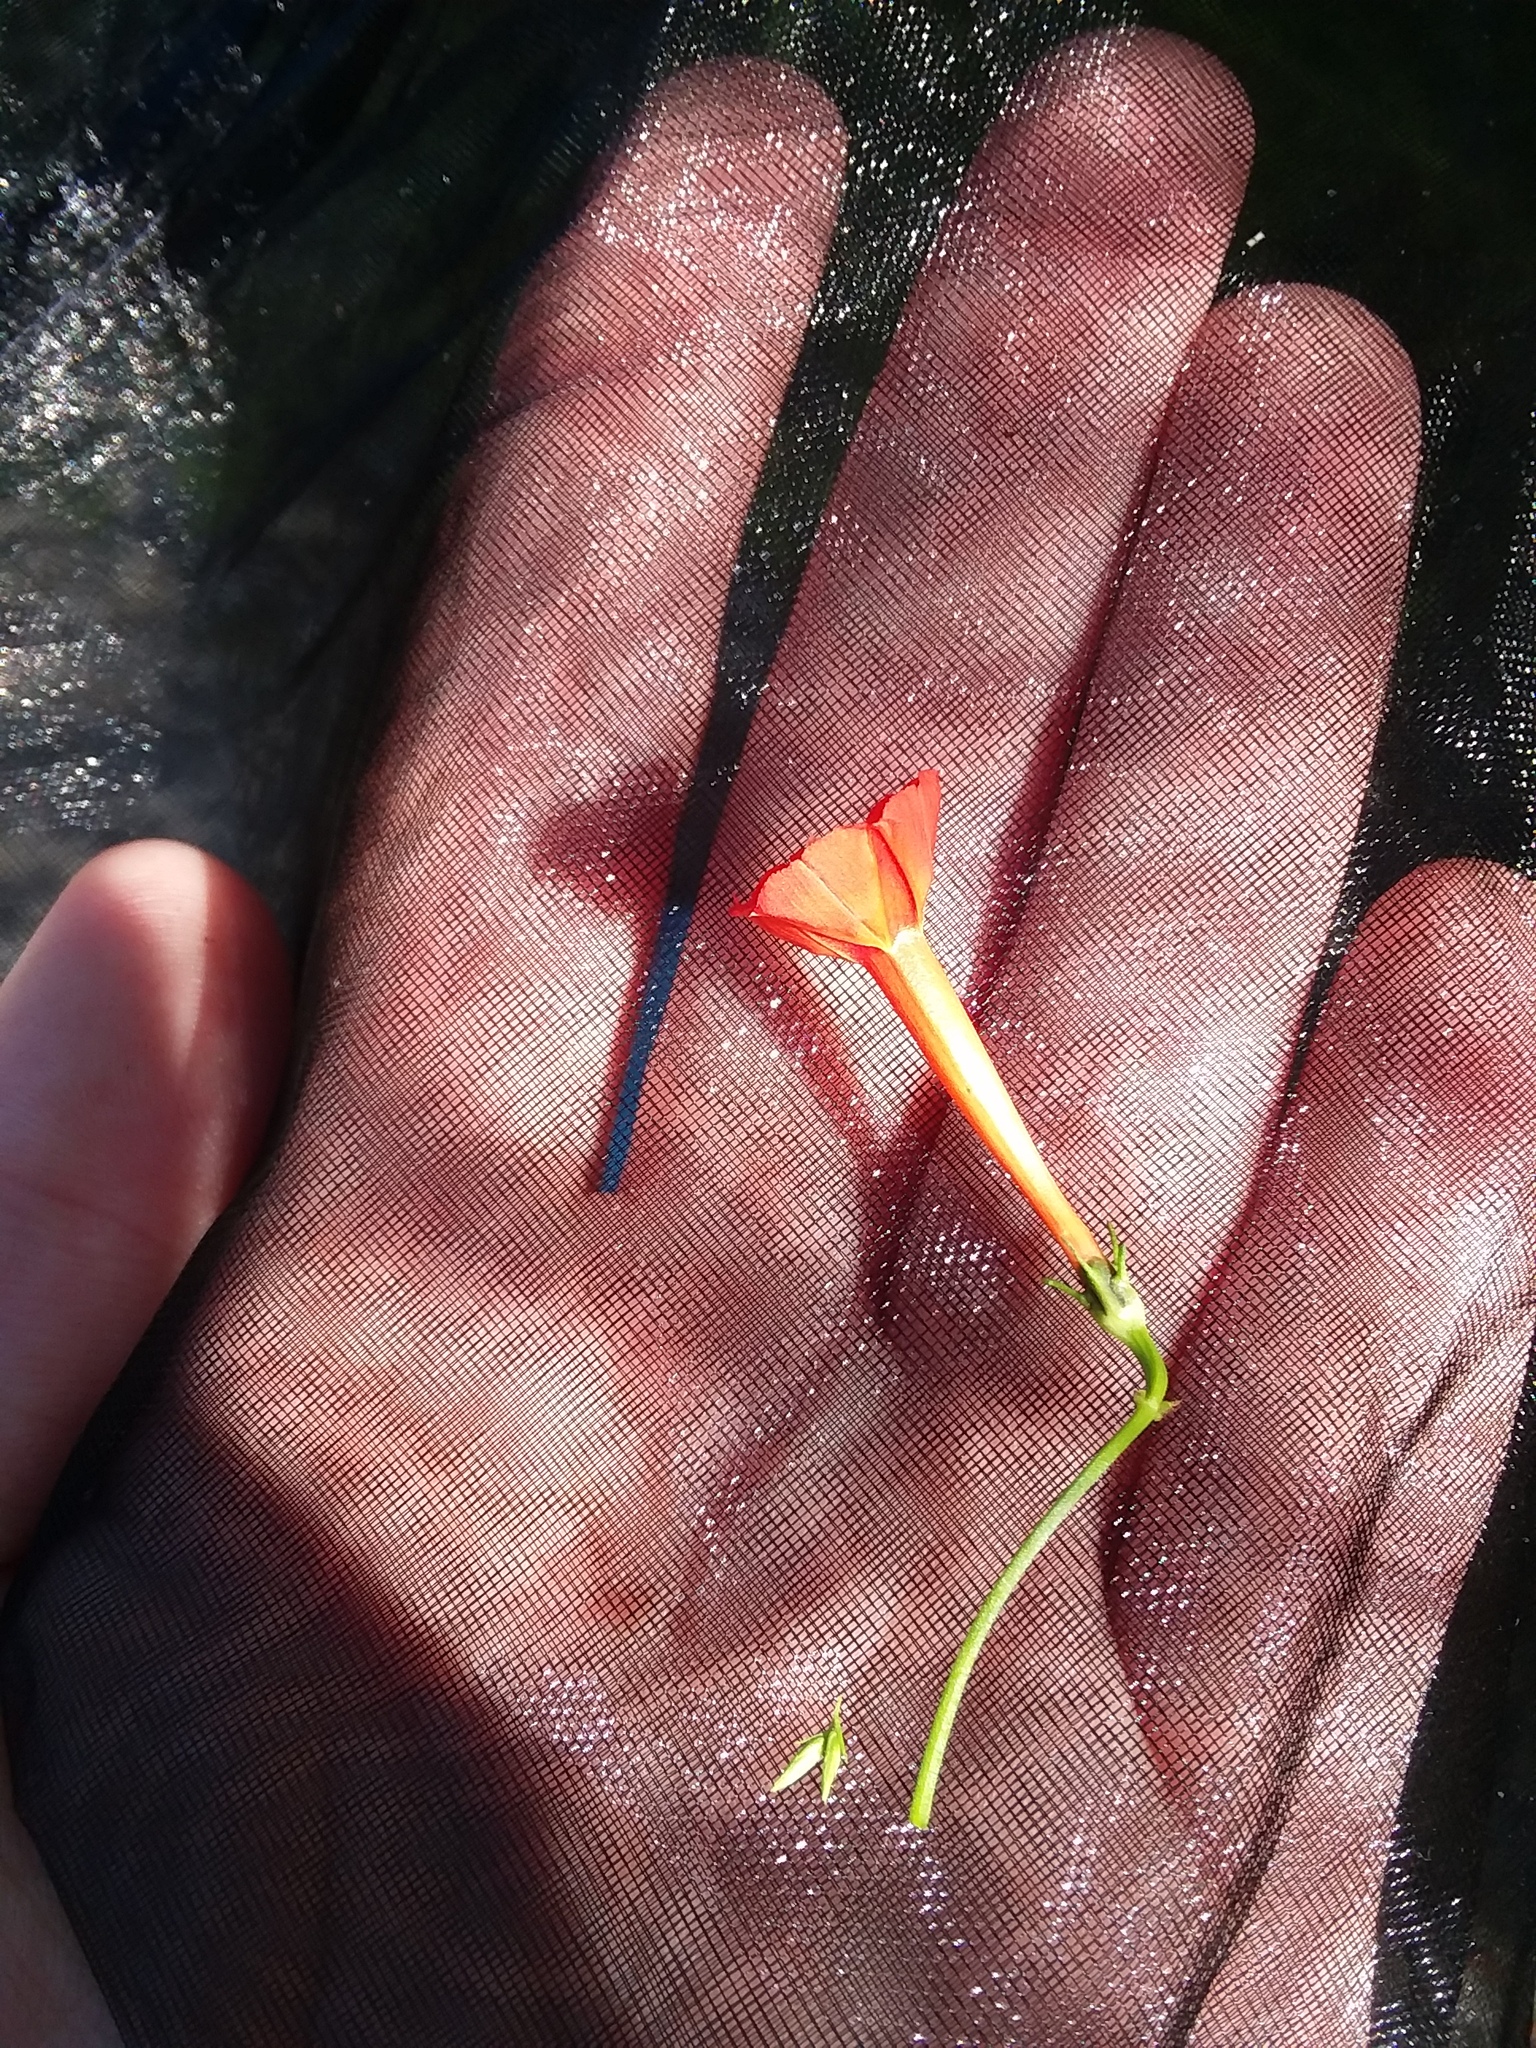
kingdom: Plantae
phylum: Tracheophyta
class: Magnoliopsida
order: Solanales
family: Convolvulaceae
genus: Ipomoea
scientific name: Ipomoea hederifolia
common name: Ivy-leaf morning-glory
